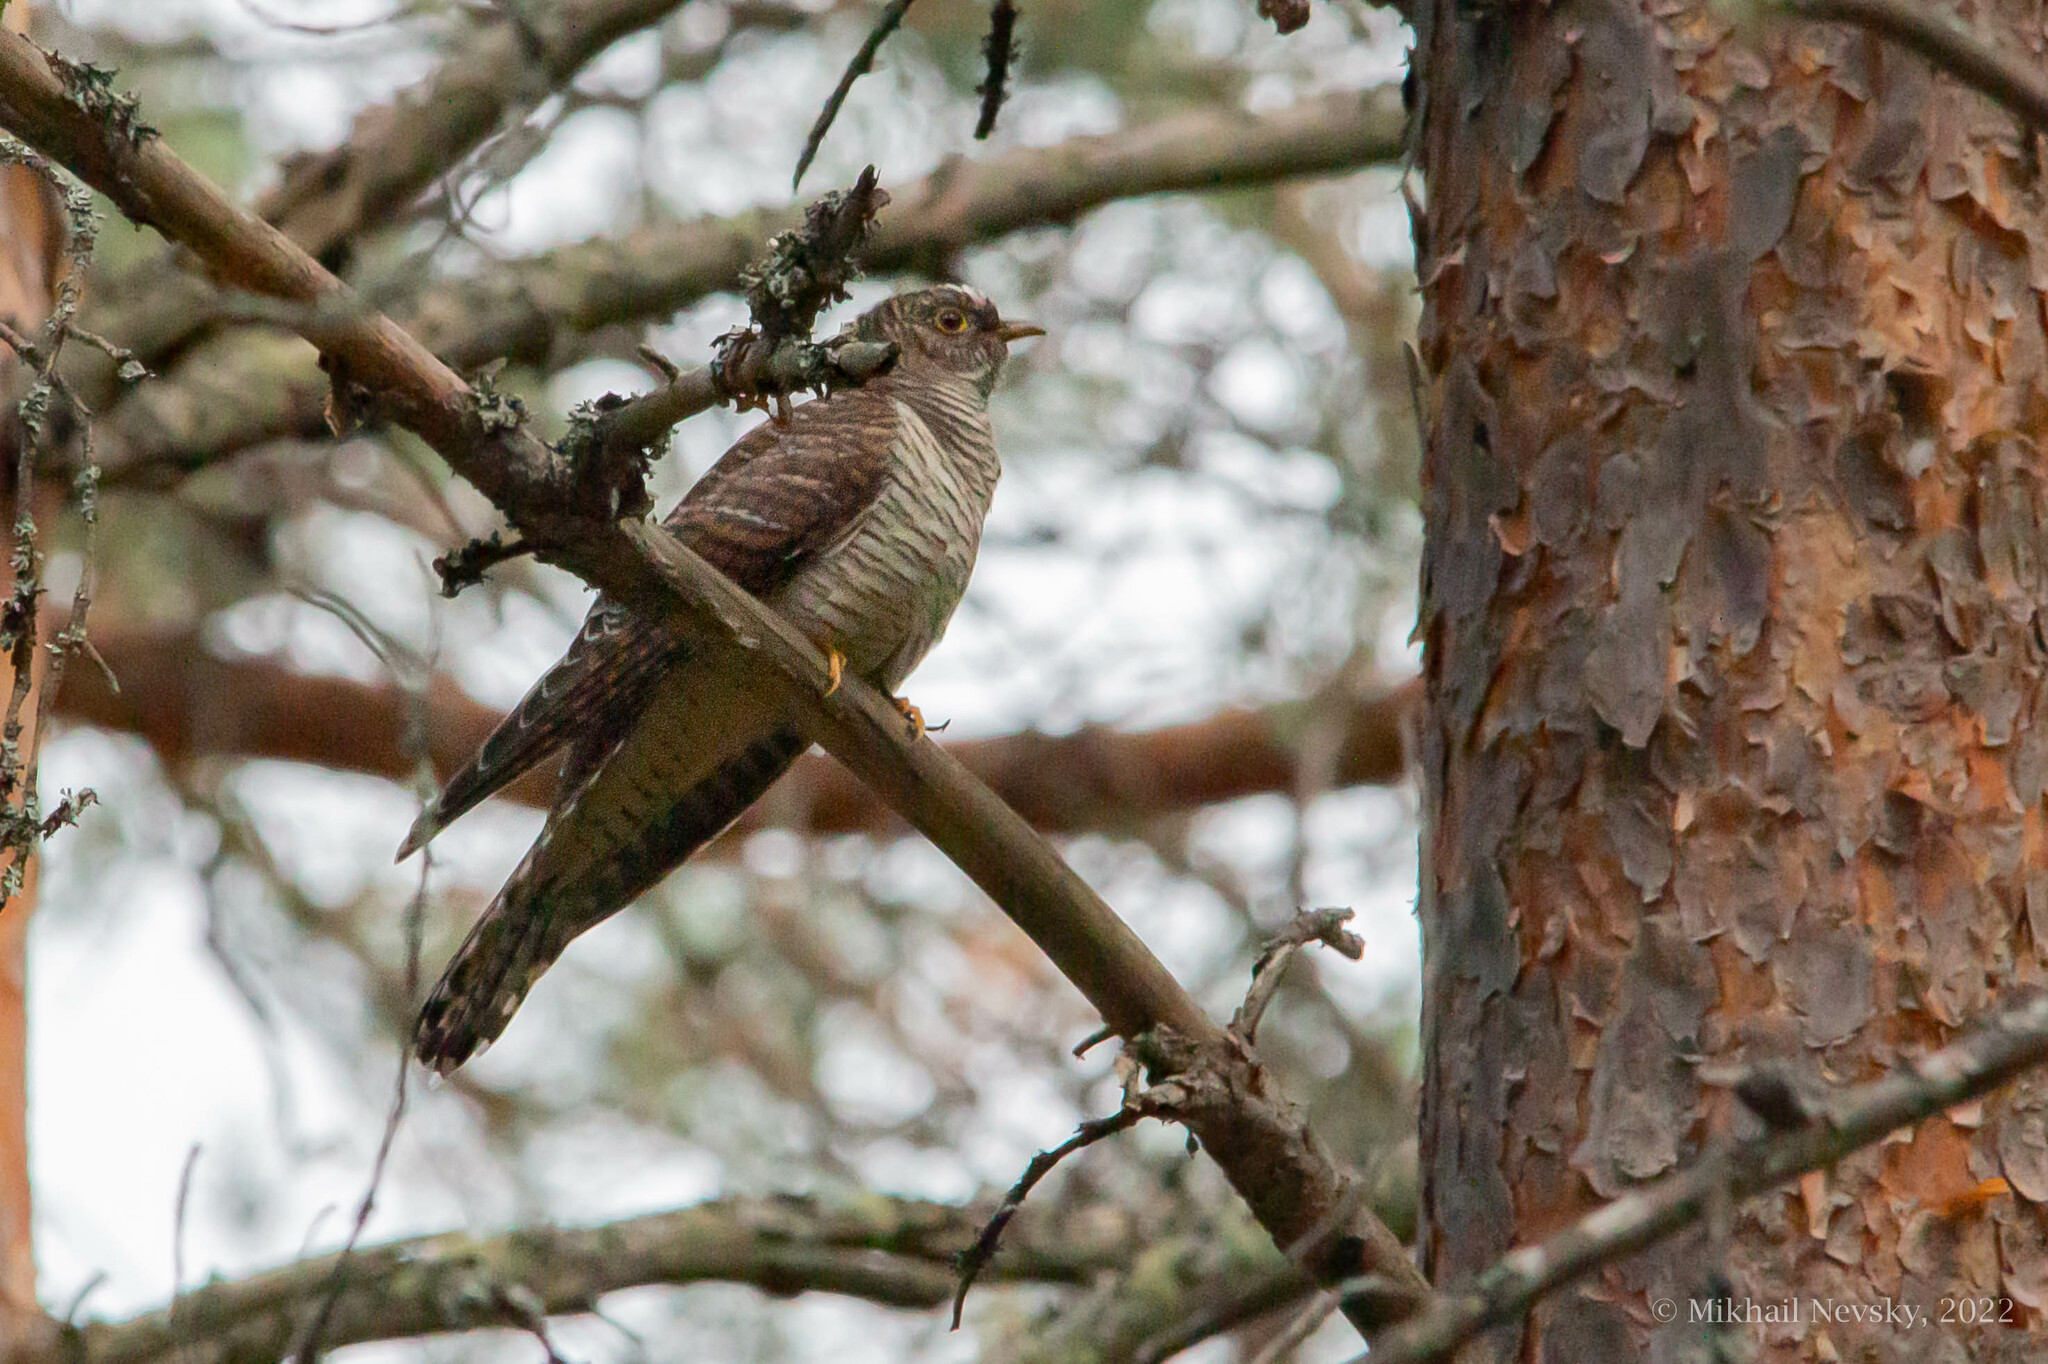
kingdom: Animalia
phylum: Chordata
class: Aves
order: Cuculiformes
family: Cuculidae
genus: Cuculus
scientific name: Cuculus canorus
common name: Common cuckoo
